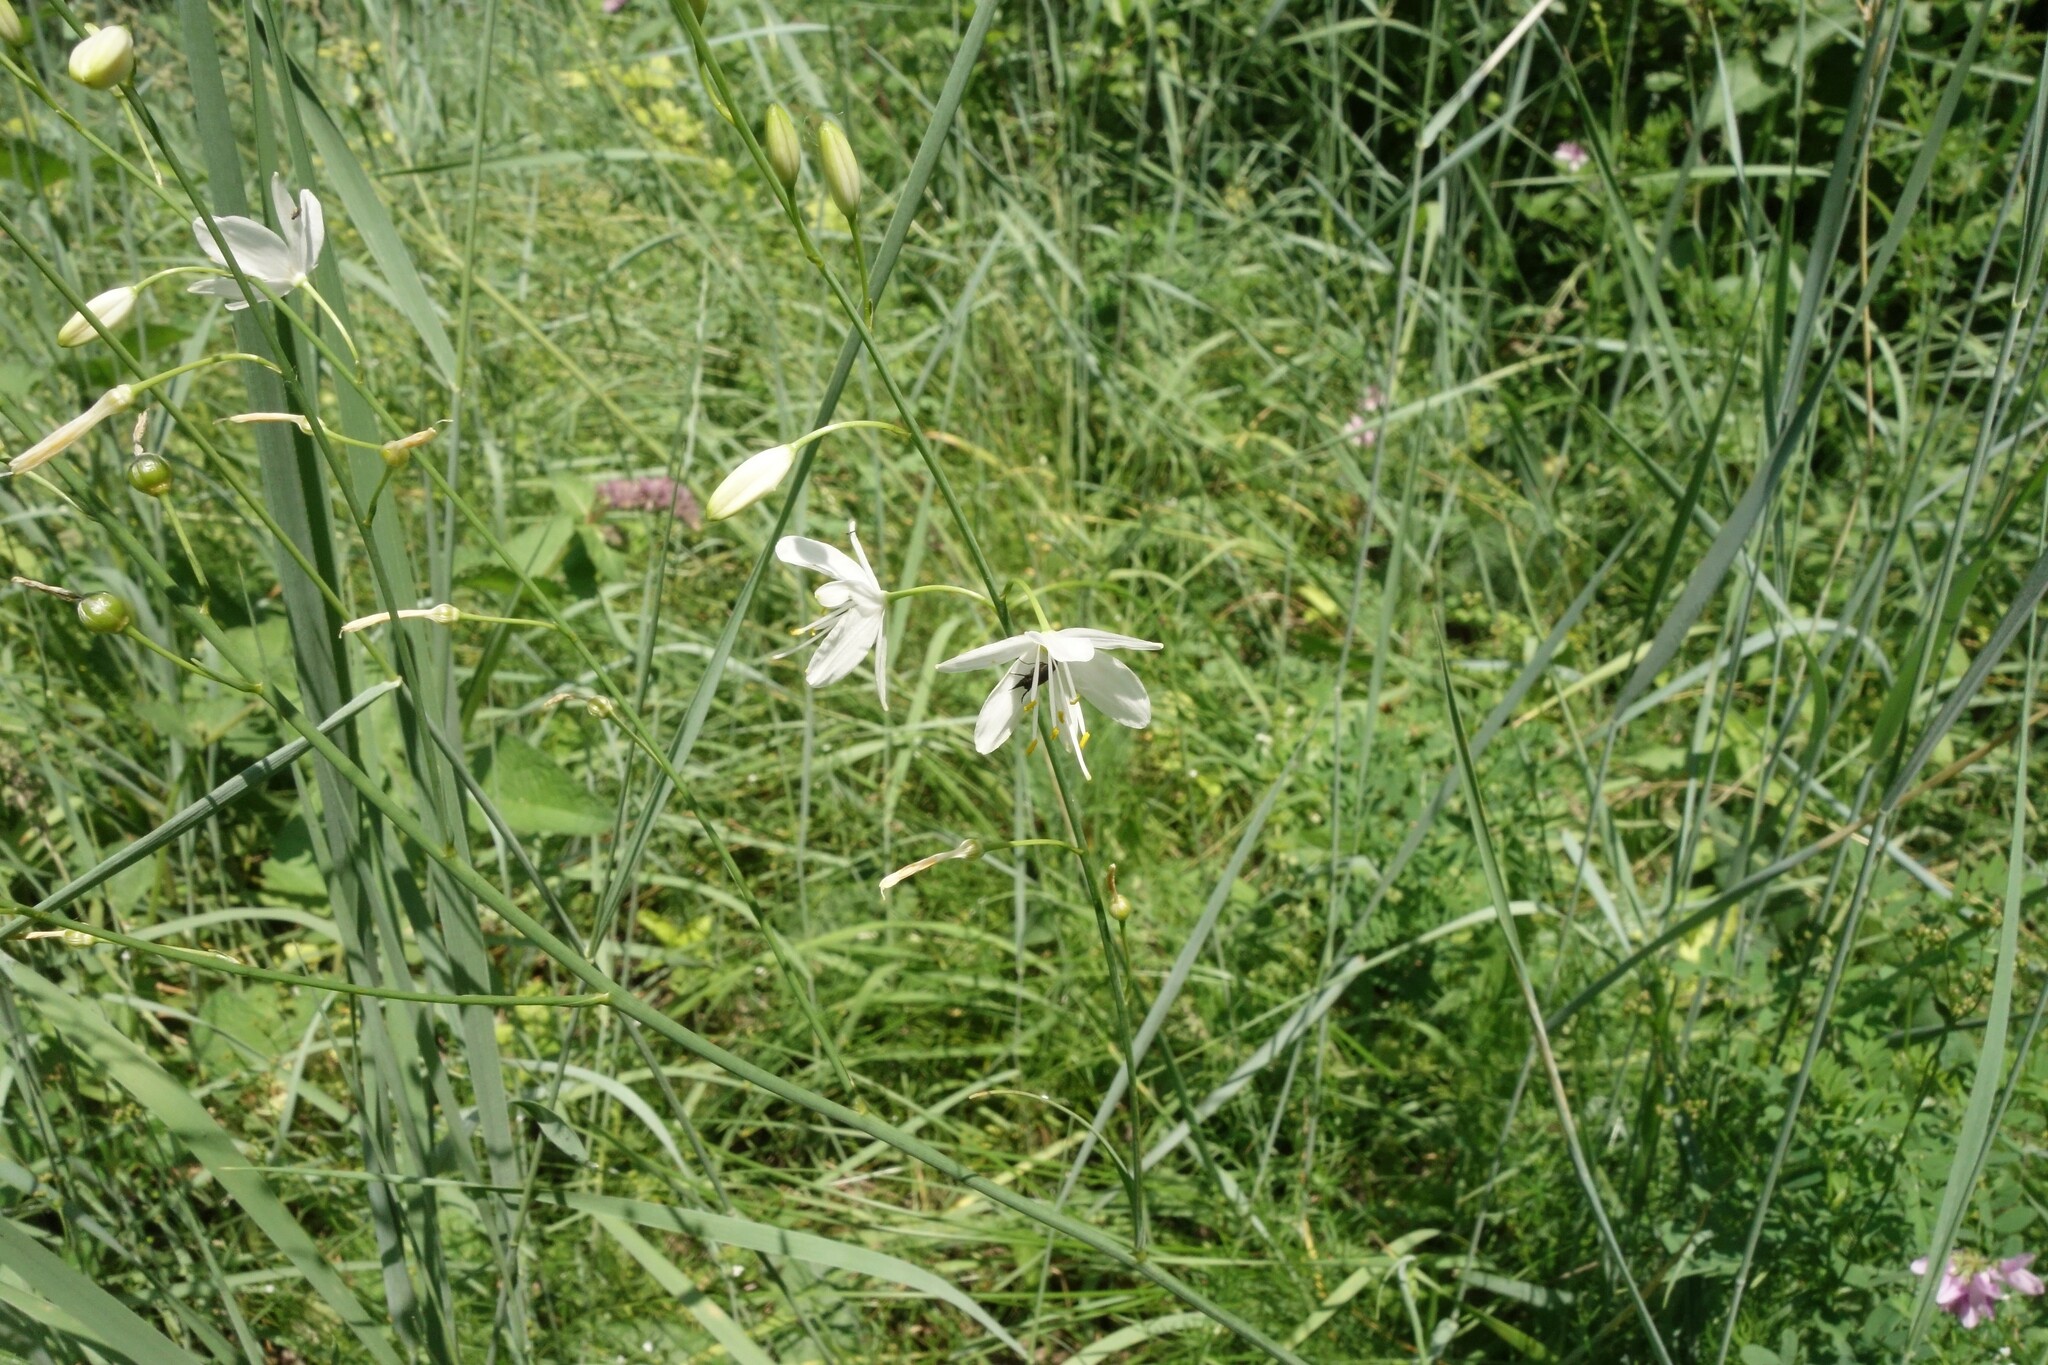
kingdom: Plantae
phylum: Tracheophyta
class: Liliopsida
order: Asparagales
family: Asparagaceae
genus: Anthericum
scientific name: Anthericum ramosum
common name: Branched st. bernard's-lily
